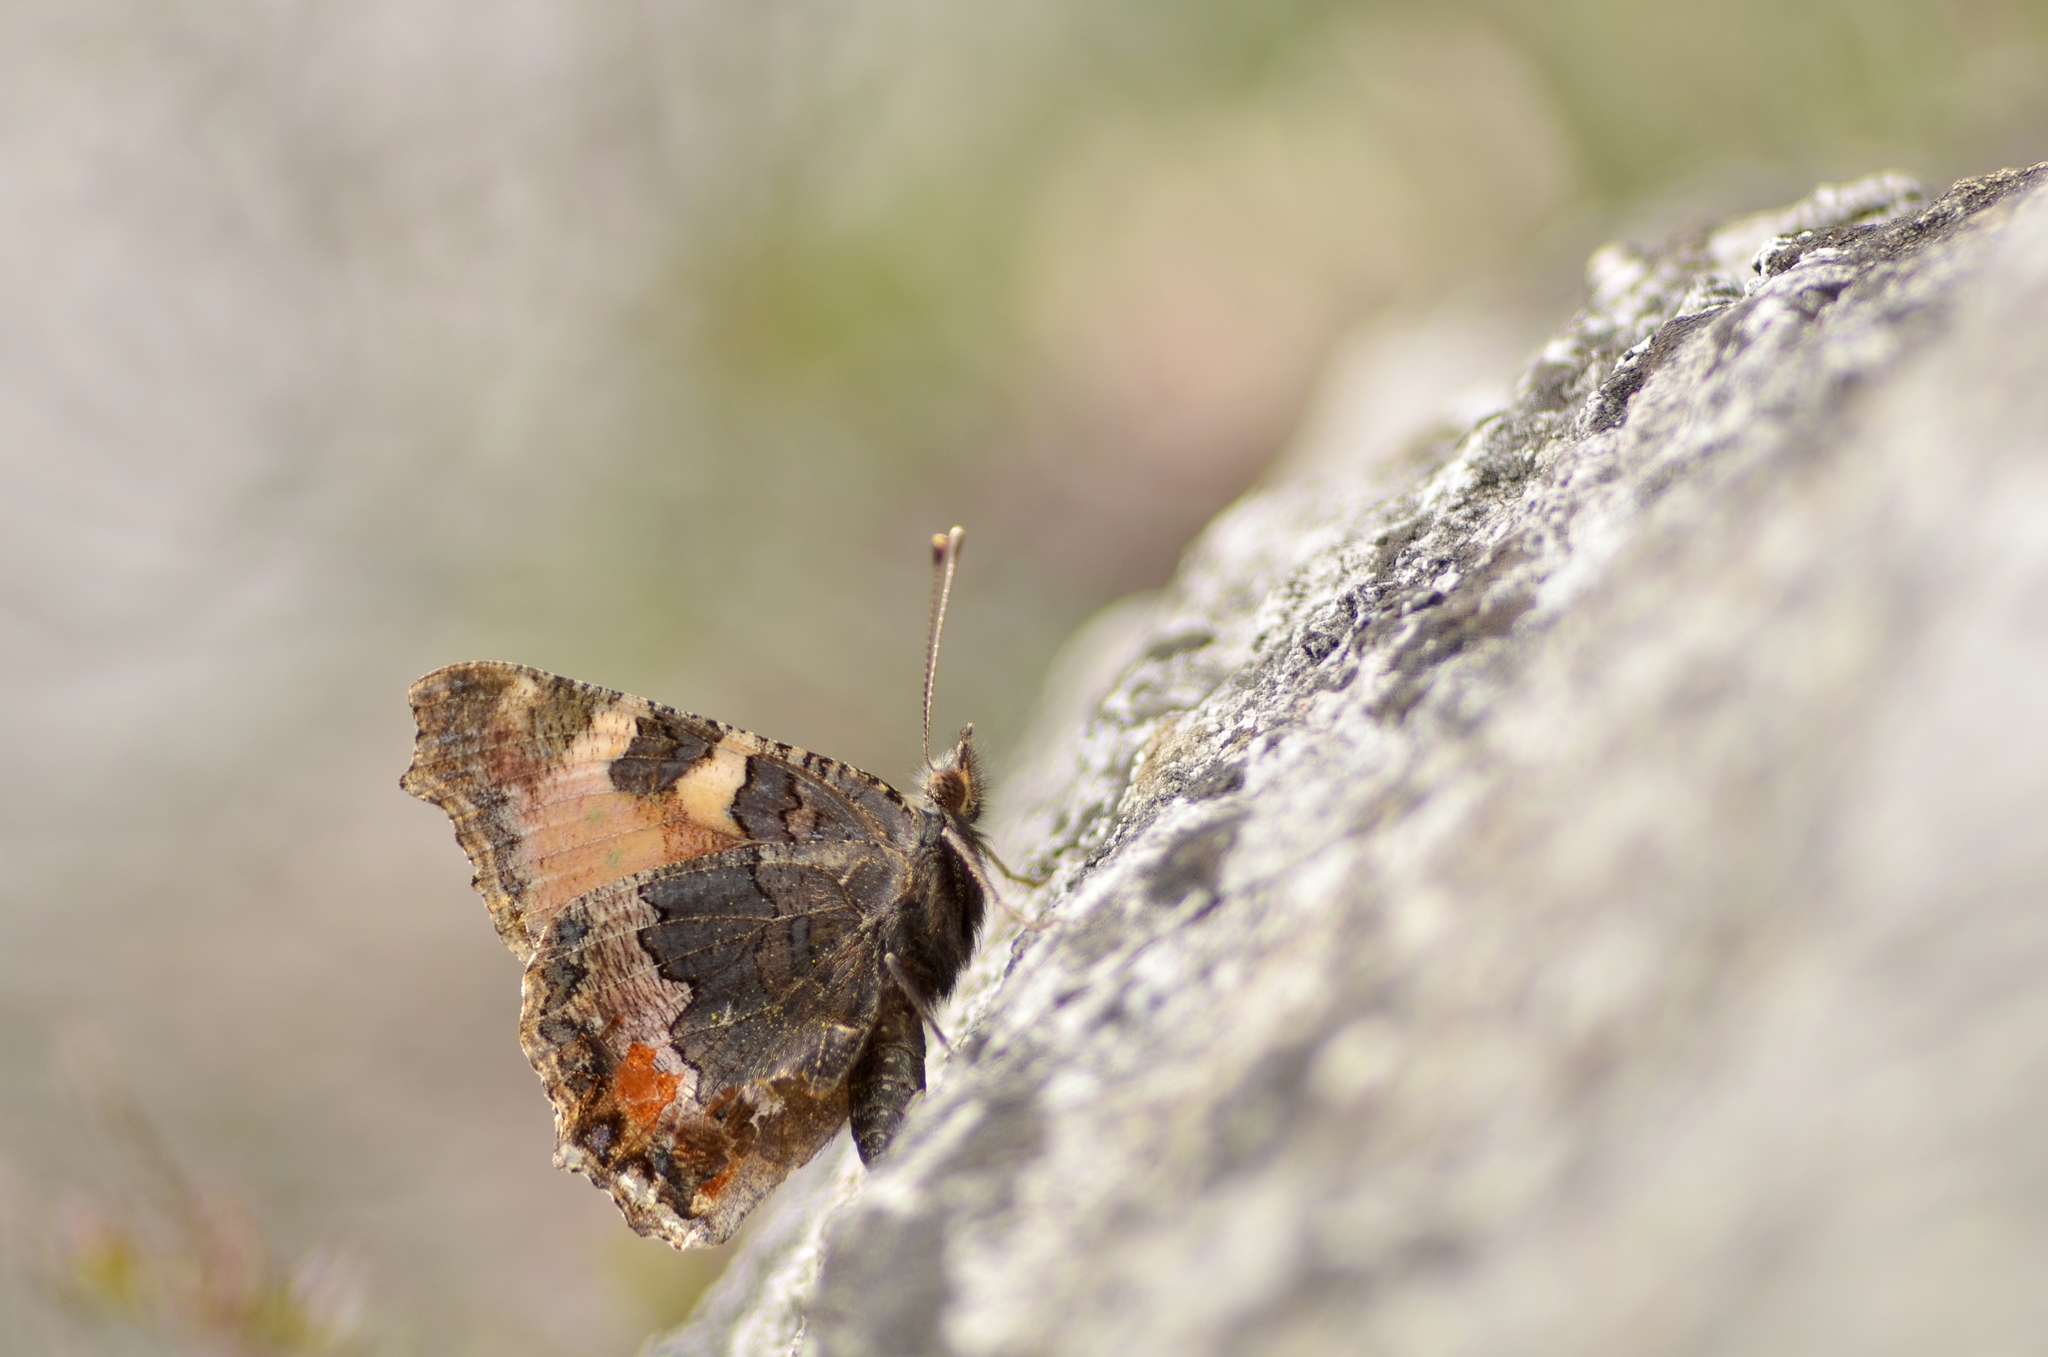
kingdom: Animalia
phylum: Arthropoda
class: Insecta
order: Lepidoptera
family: Nymphalidae
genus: Aglais
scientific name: Aglais urticae
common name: Small tortoiseshell
